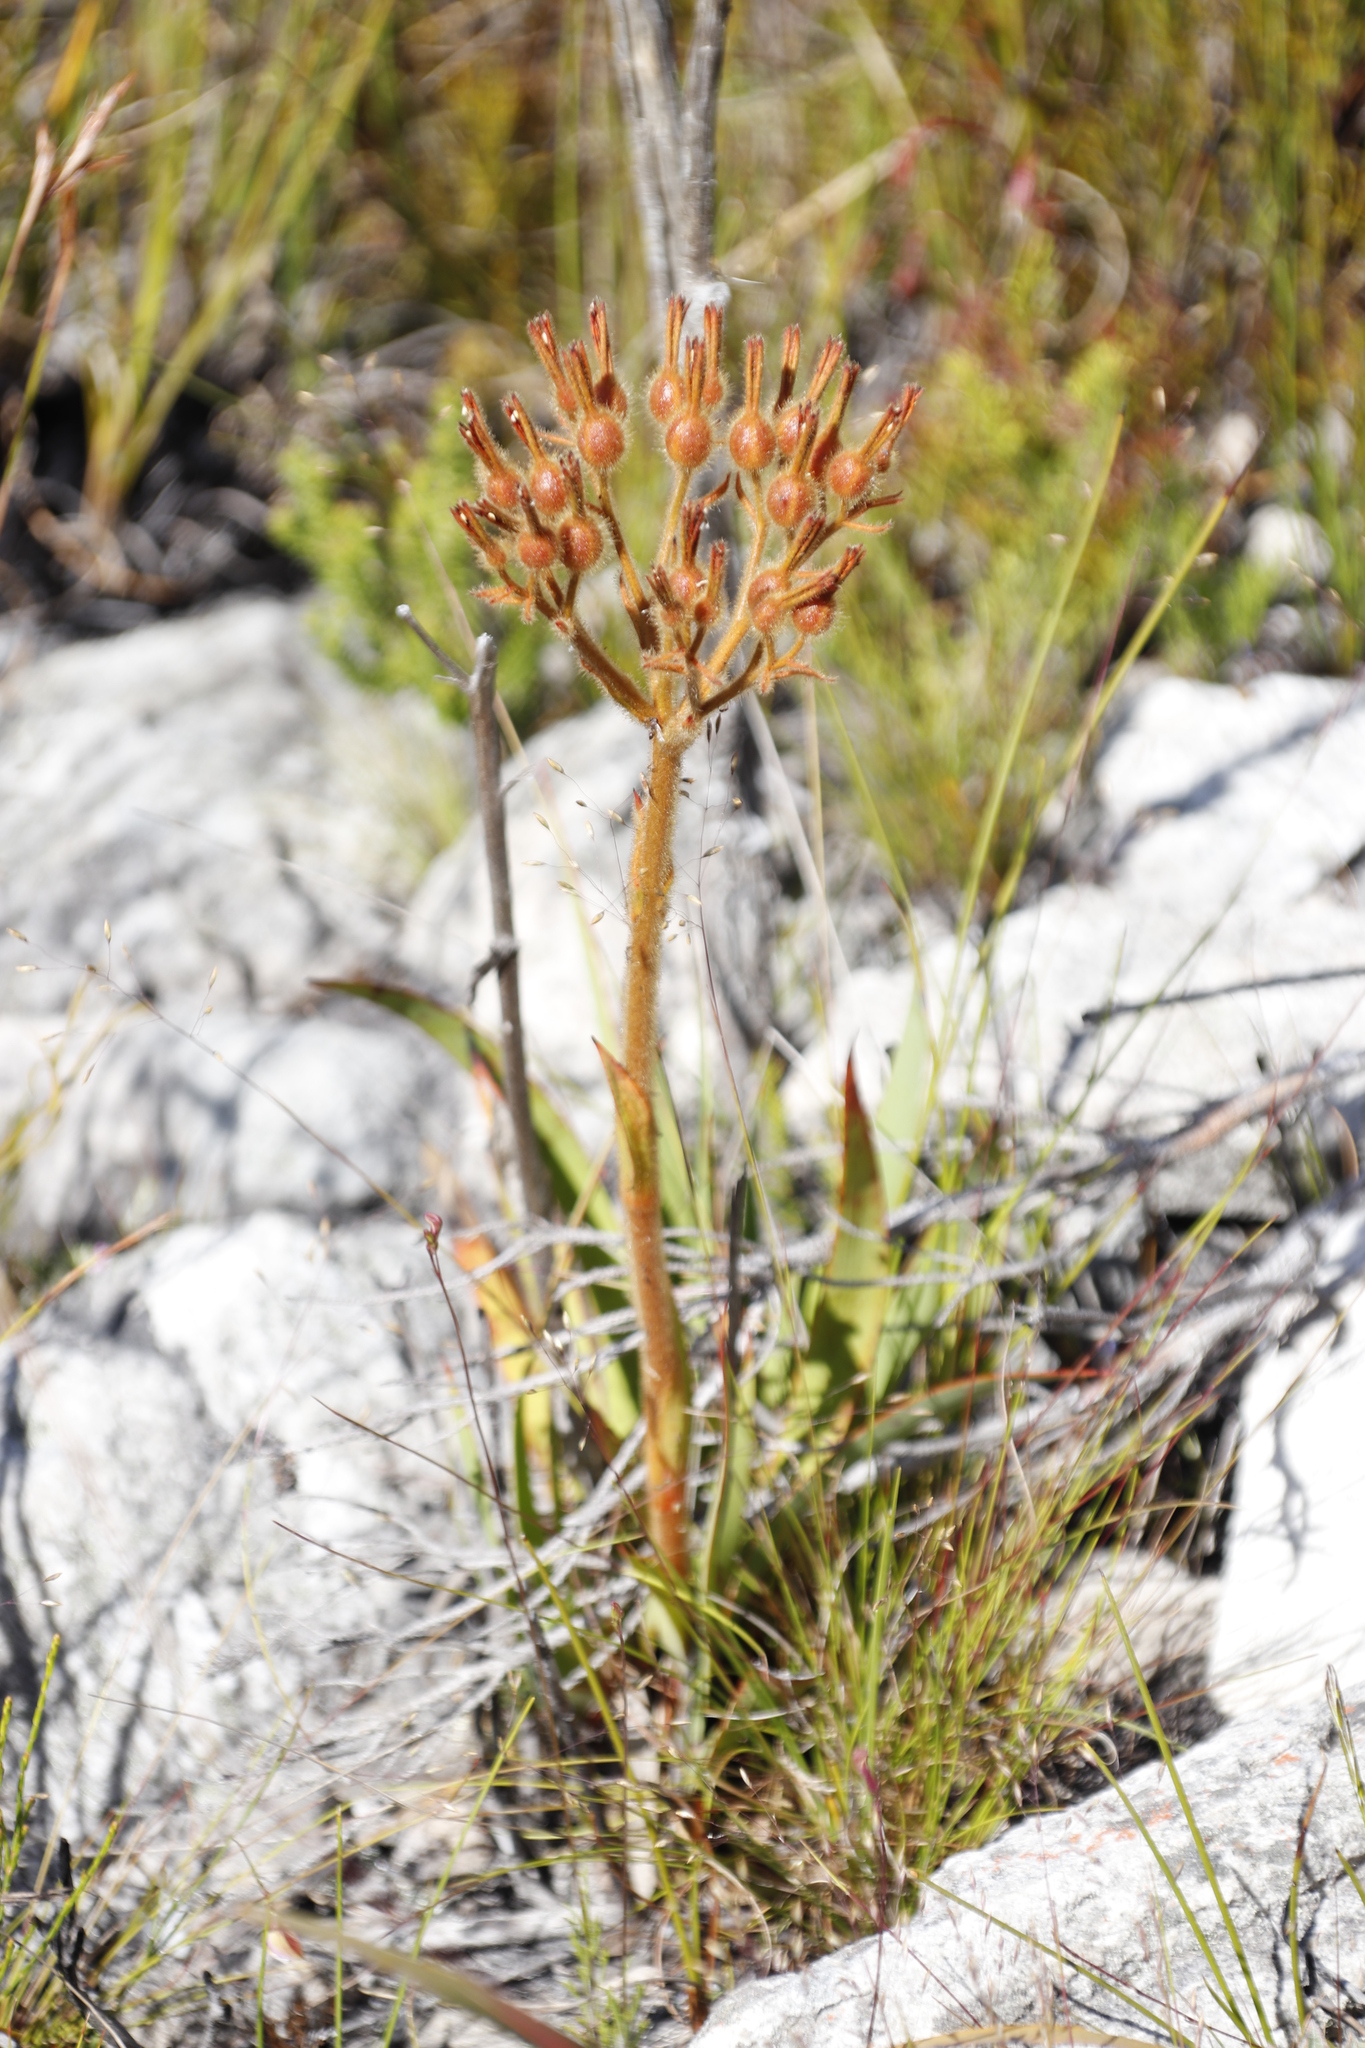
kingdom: Plantae
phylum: Tracheophyta
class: Liliopsida
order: Commelinales
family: Haemodoraceae
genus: Dilatris
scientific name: Dilatris viscosa
